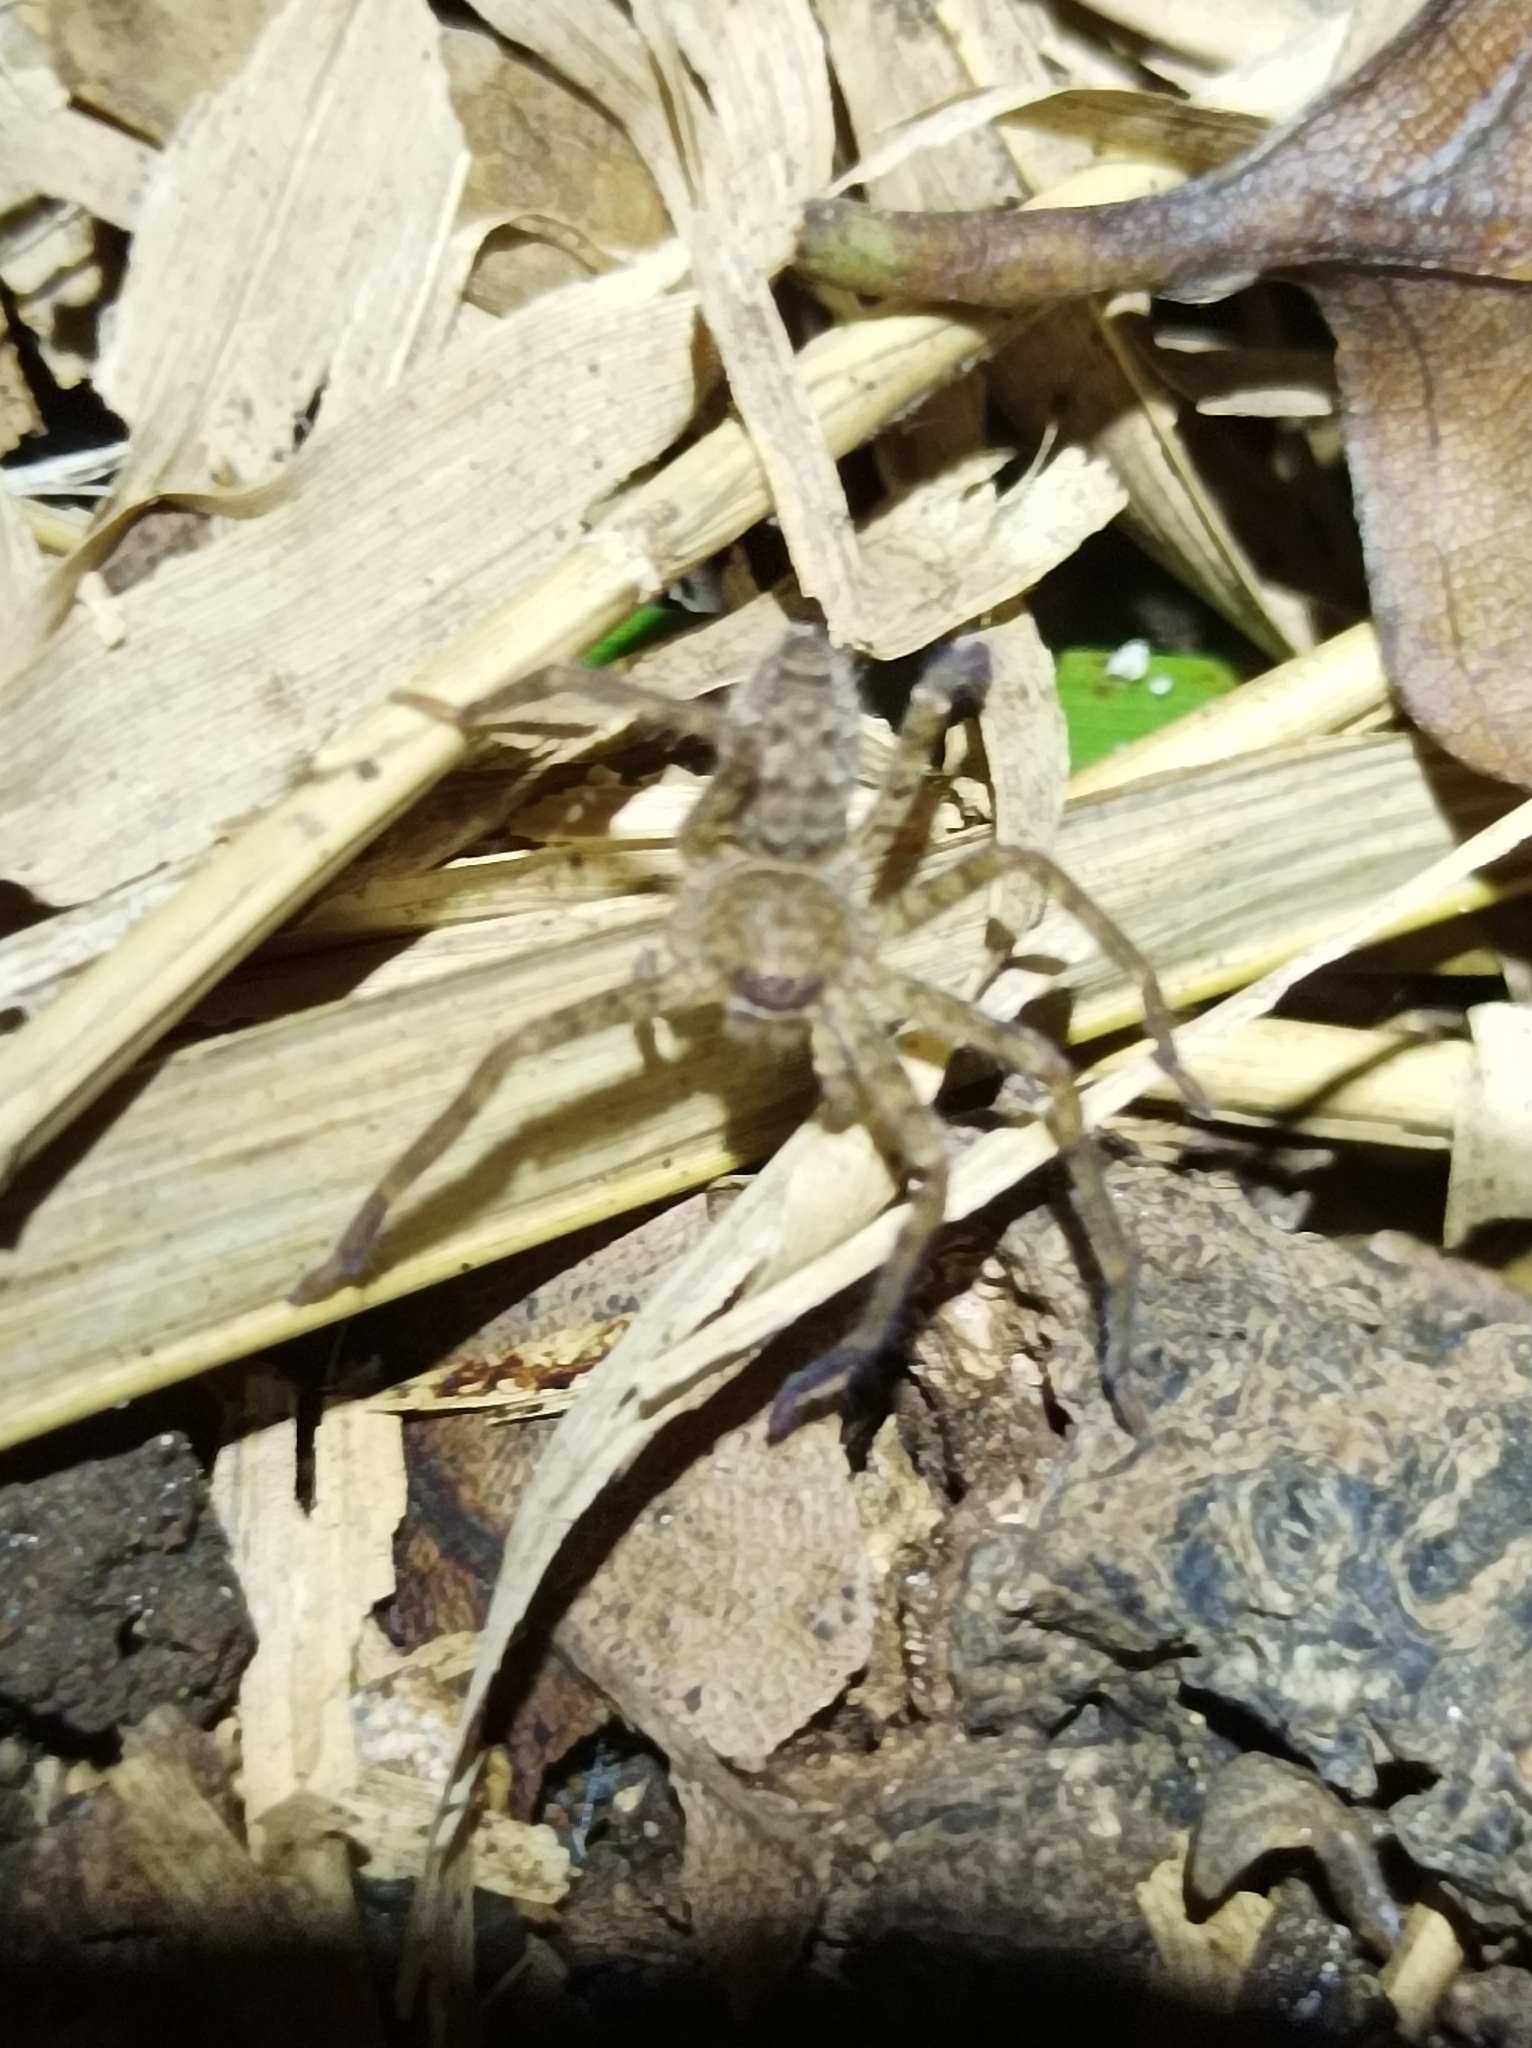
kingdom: Animalia
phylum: Arthropoda
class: Arachnida
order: Araneae
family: Sparassidae
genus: Heteropoda
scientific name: Heteropoda nobilis
